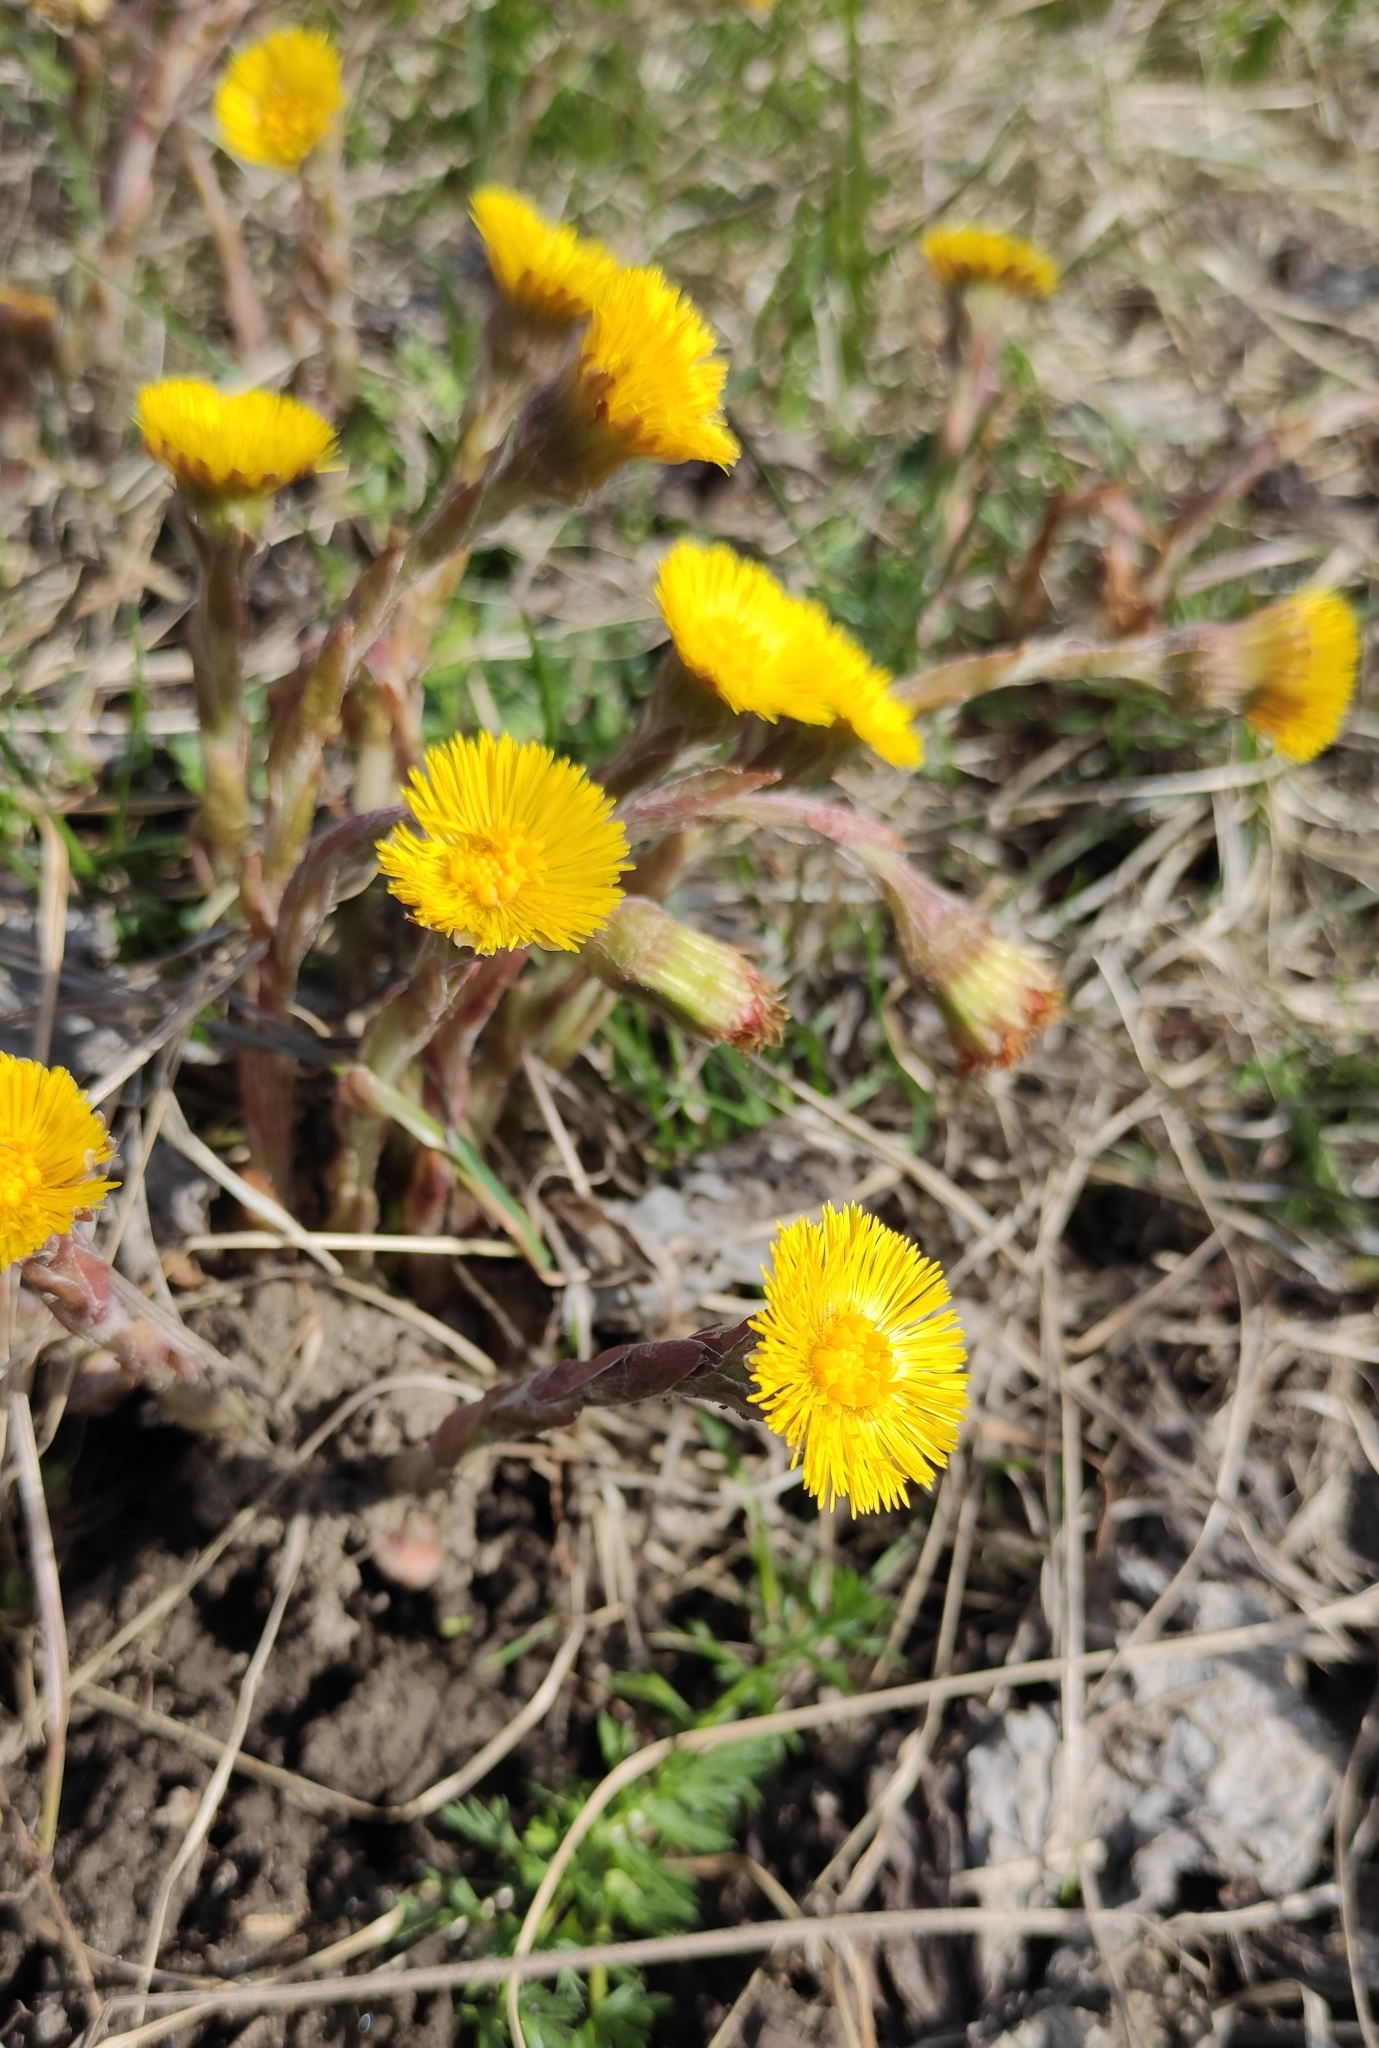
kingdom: Plantae
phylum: Tracheophyta
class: Magnoliopsida
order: Asterales
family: Asteraceae
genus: Tussilago
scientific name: Tussilago farfara
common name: Coltsfoot
